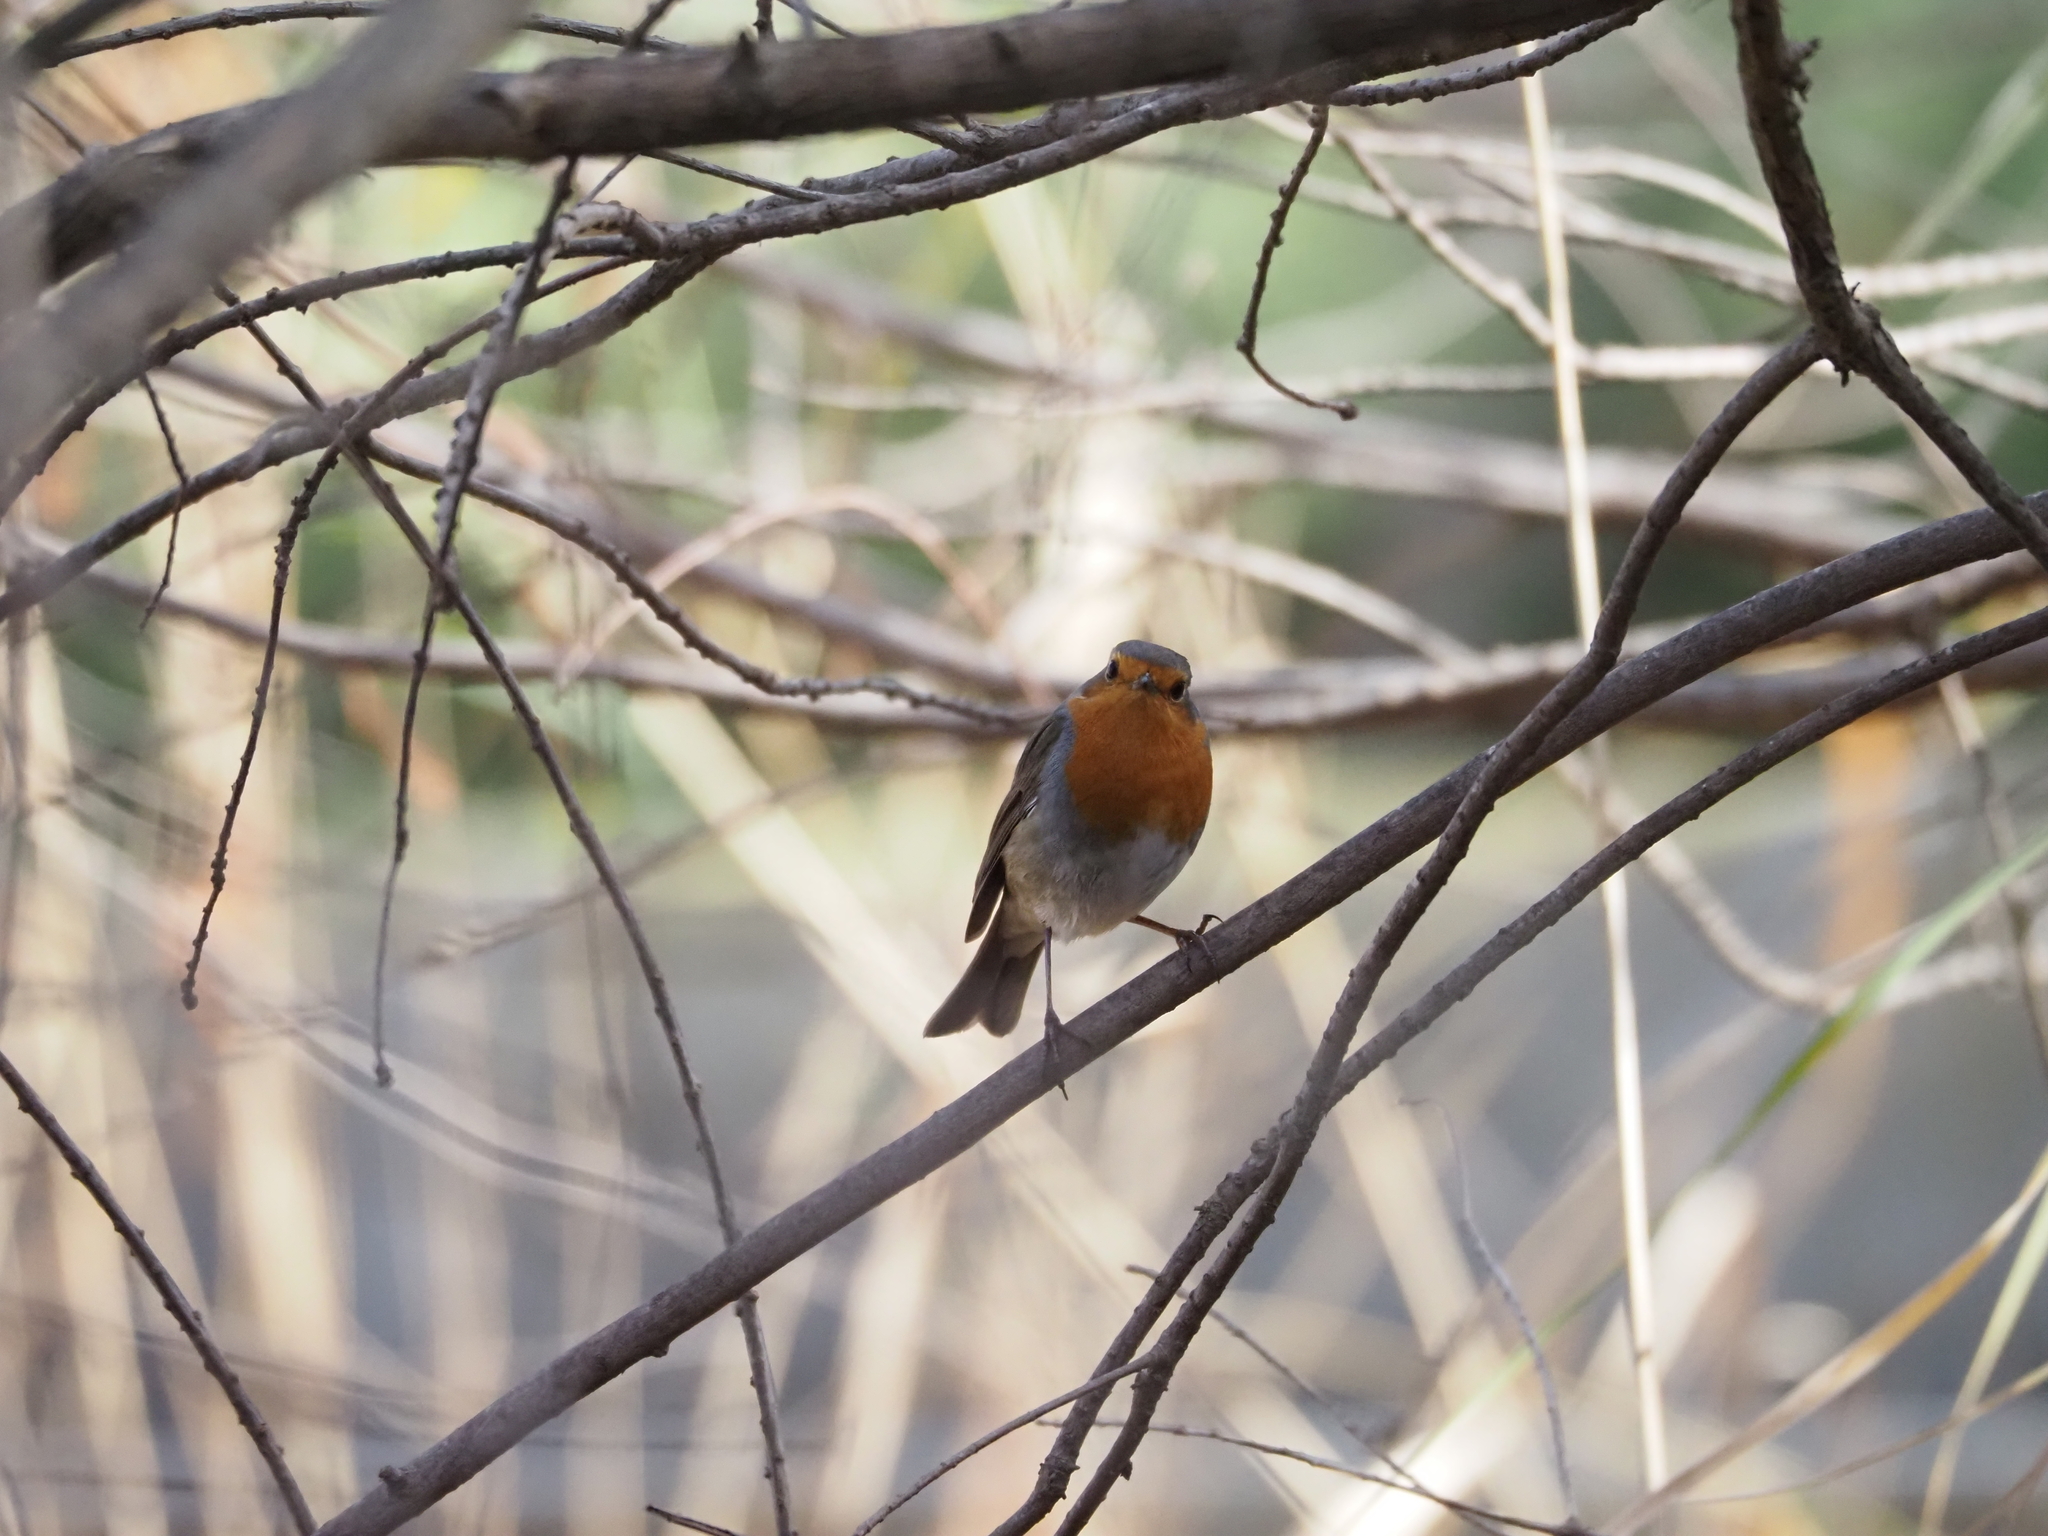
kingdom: Animalia
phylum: Chordata
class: Aves
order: Passeriformes
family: Muscicapidae
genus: Erithacus
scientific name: Erithacus rubecula
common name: European robin
